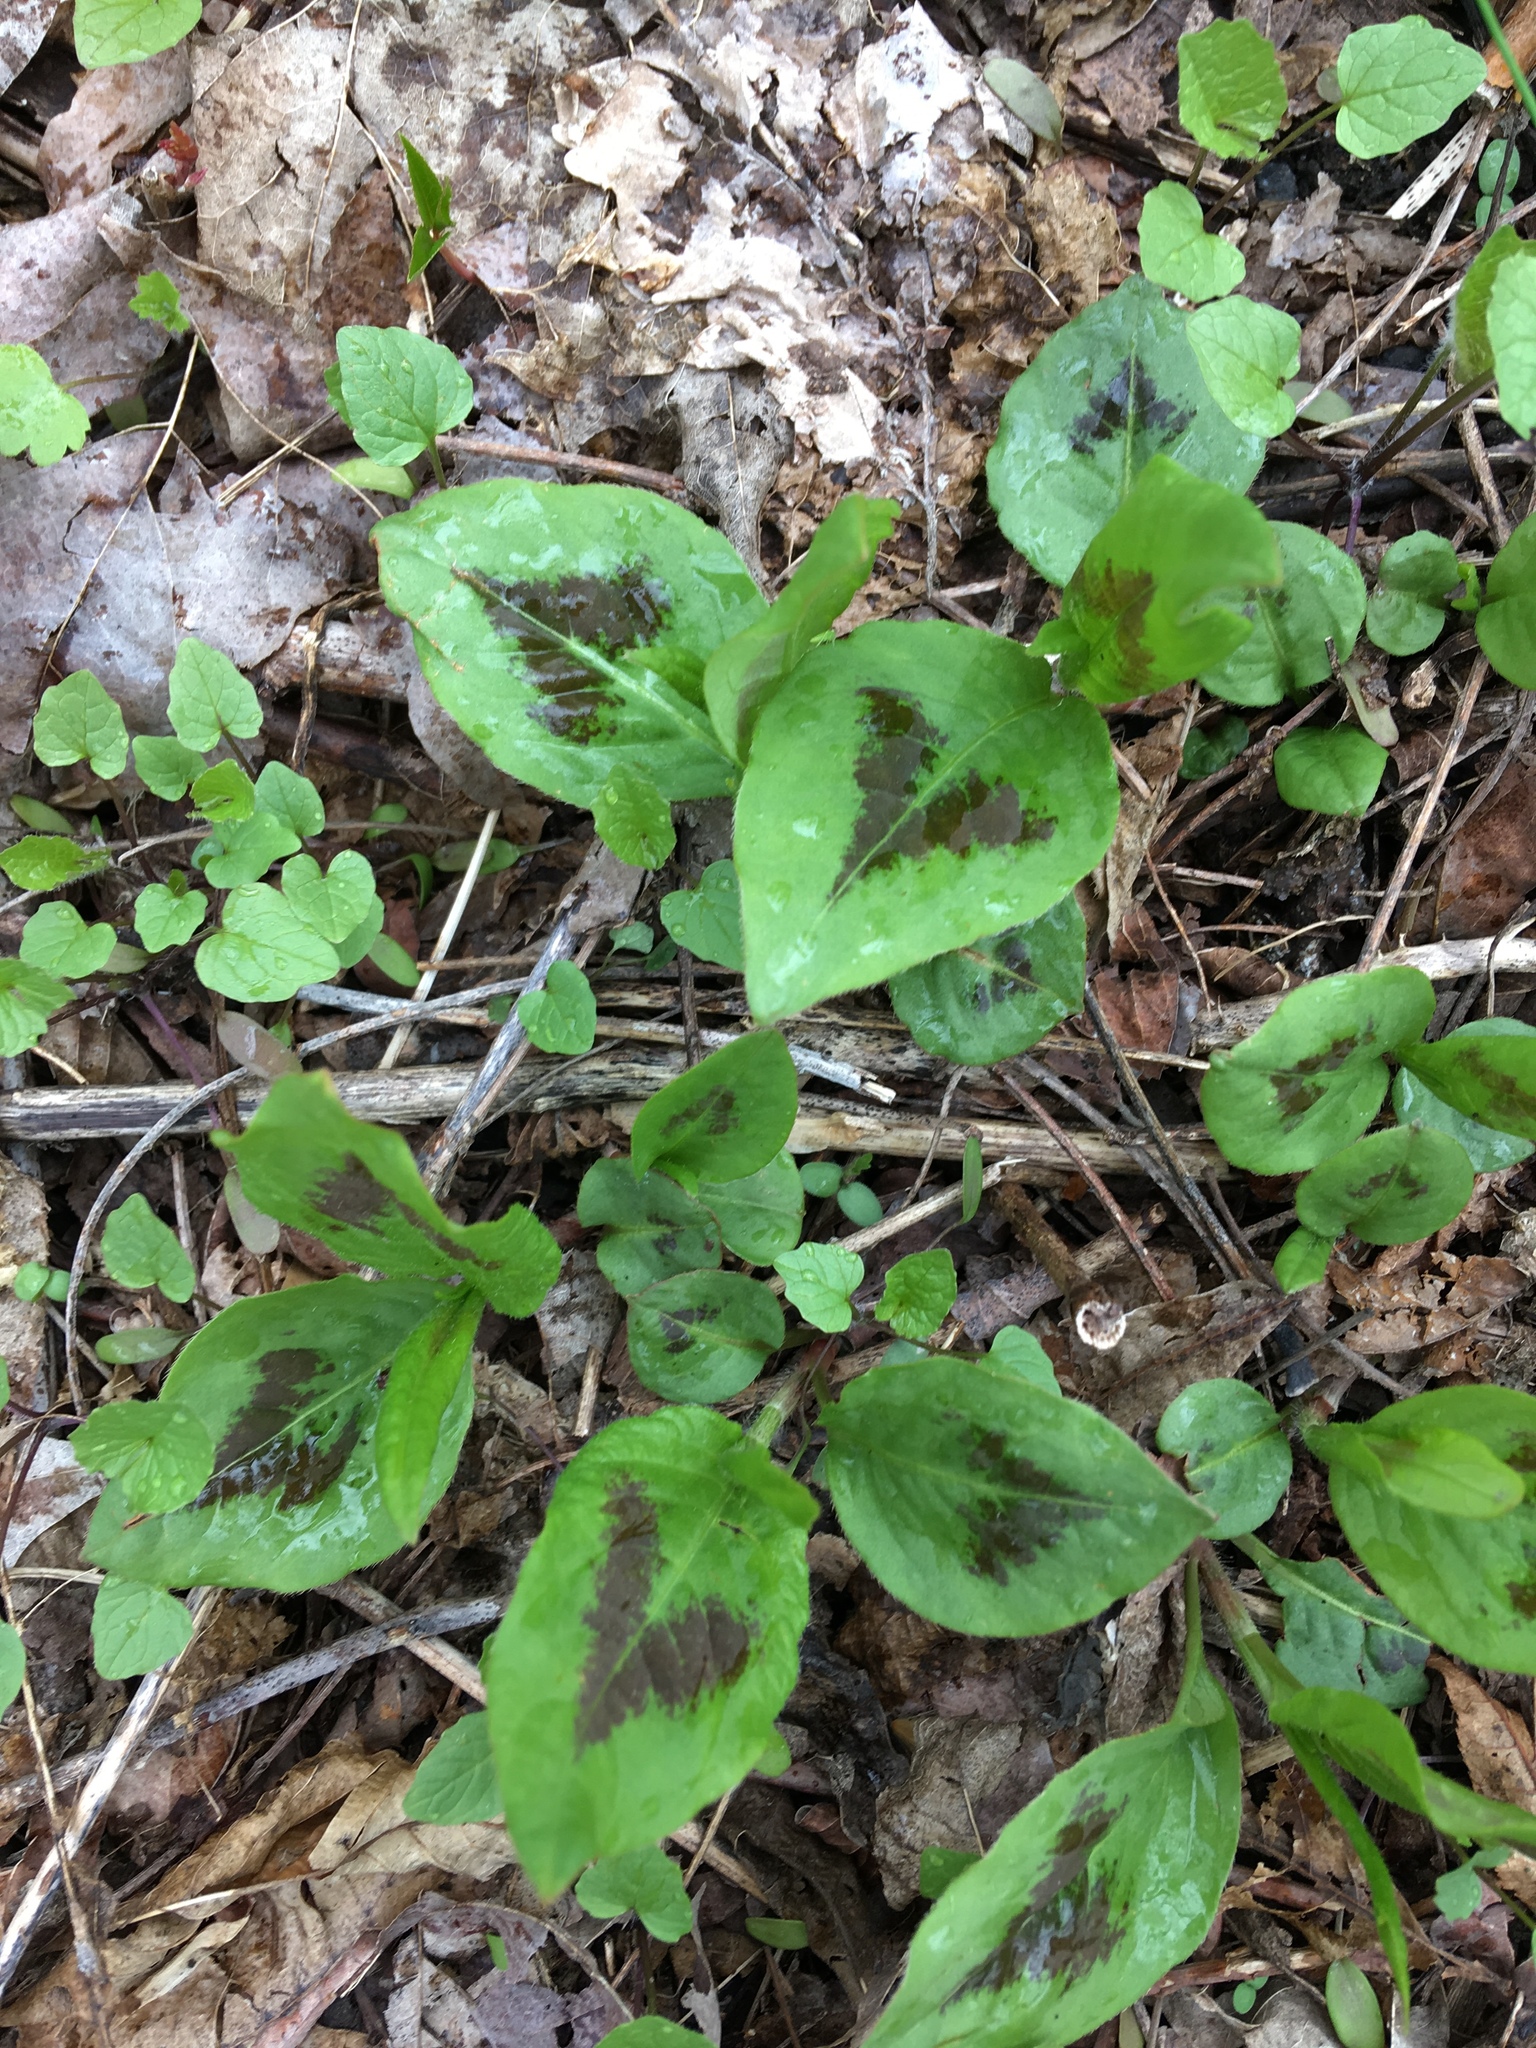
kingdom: Plantae
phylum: Tracheophyta
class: Magnoliopsida
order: Caryophyllales
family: Polygonaceae
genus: Persicaria
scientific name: Persicaria virginiana
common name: Jumpseed
